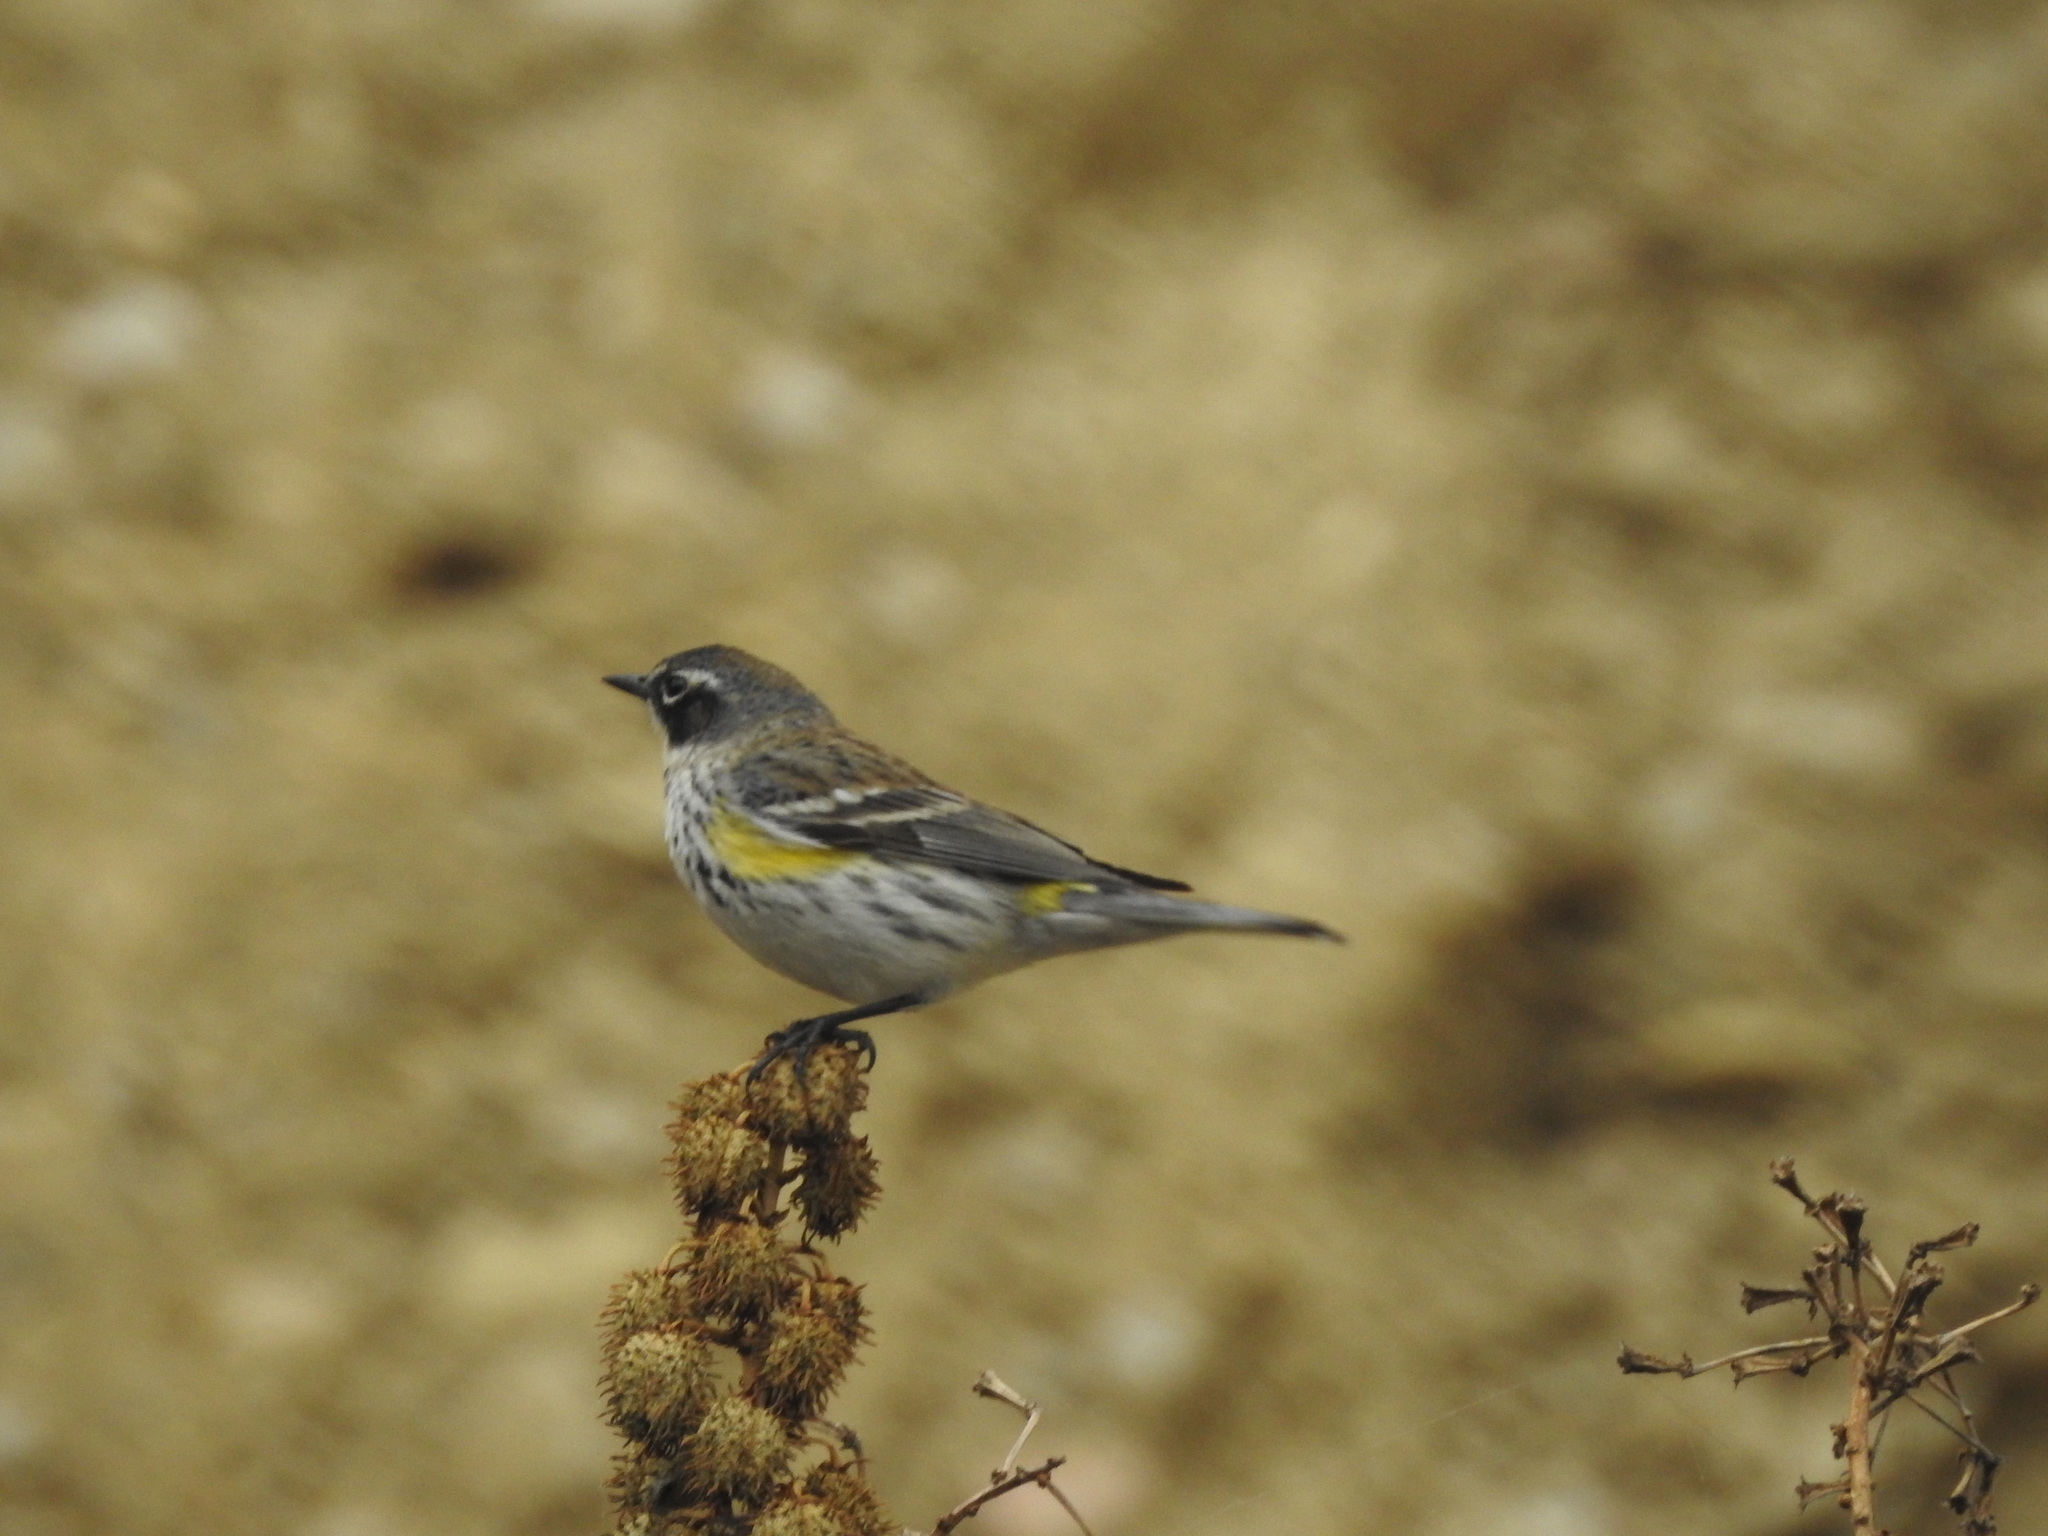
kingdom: Animalia
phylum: Chordata
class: Aves
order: Passeriformes
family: Parulidae
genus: Setophaga
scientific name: Setophaga coronata
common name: Myrtle warbler
